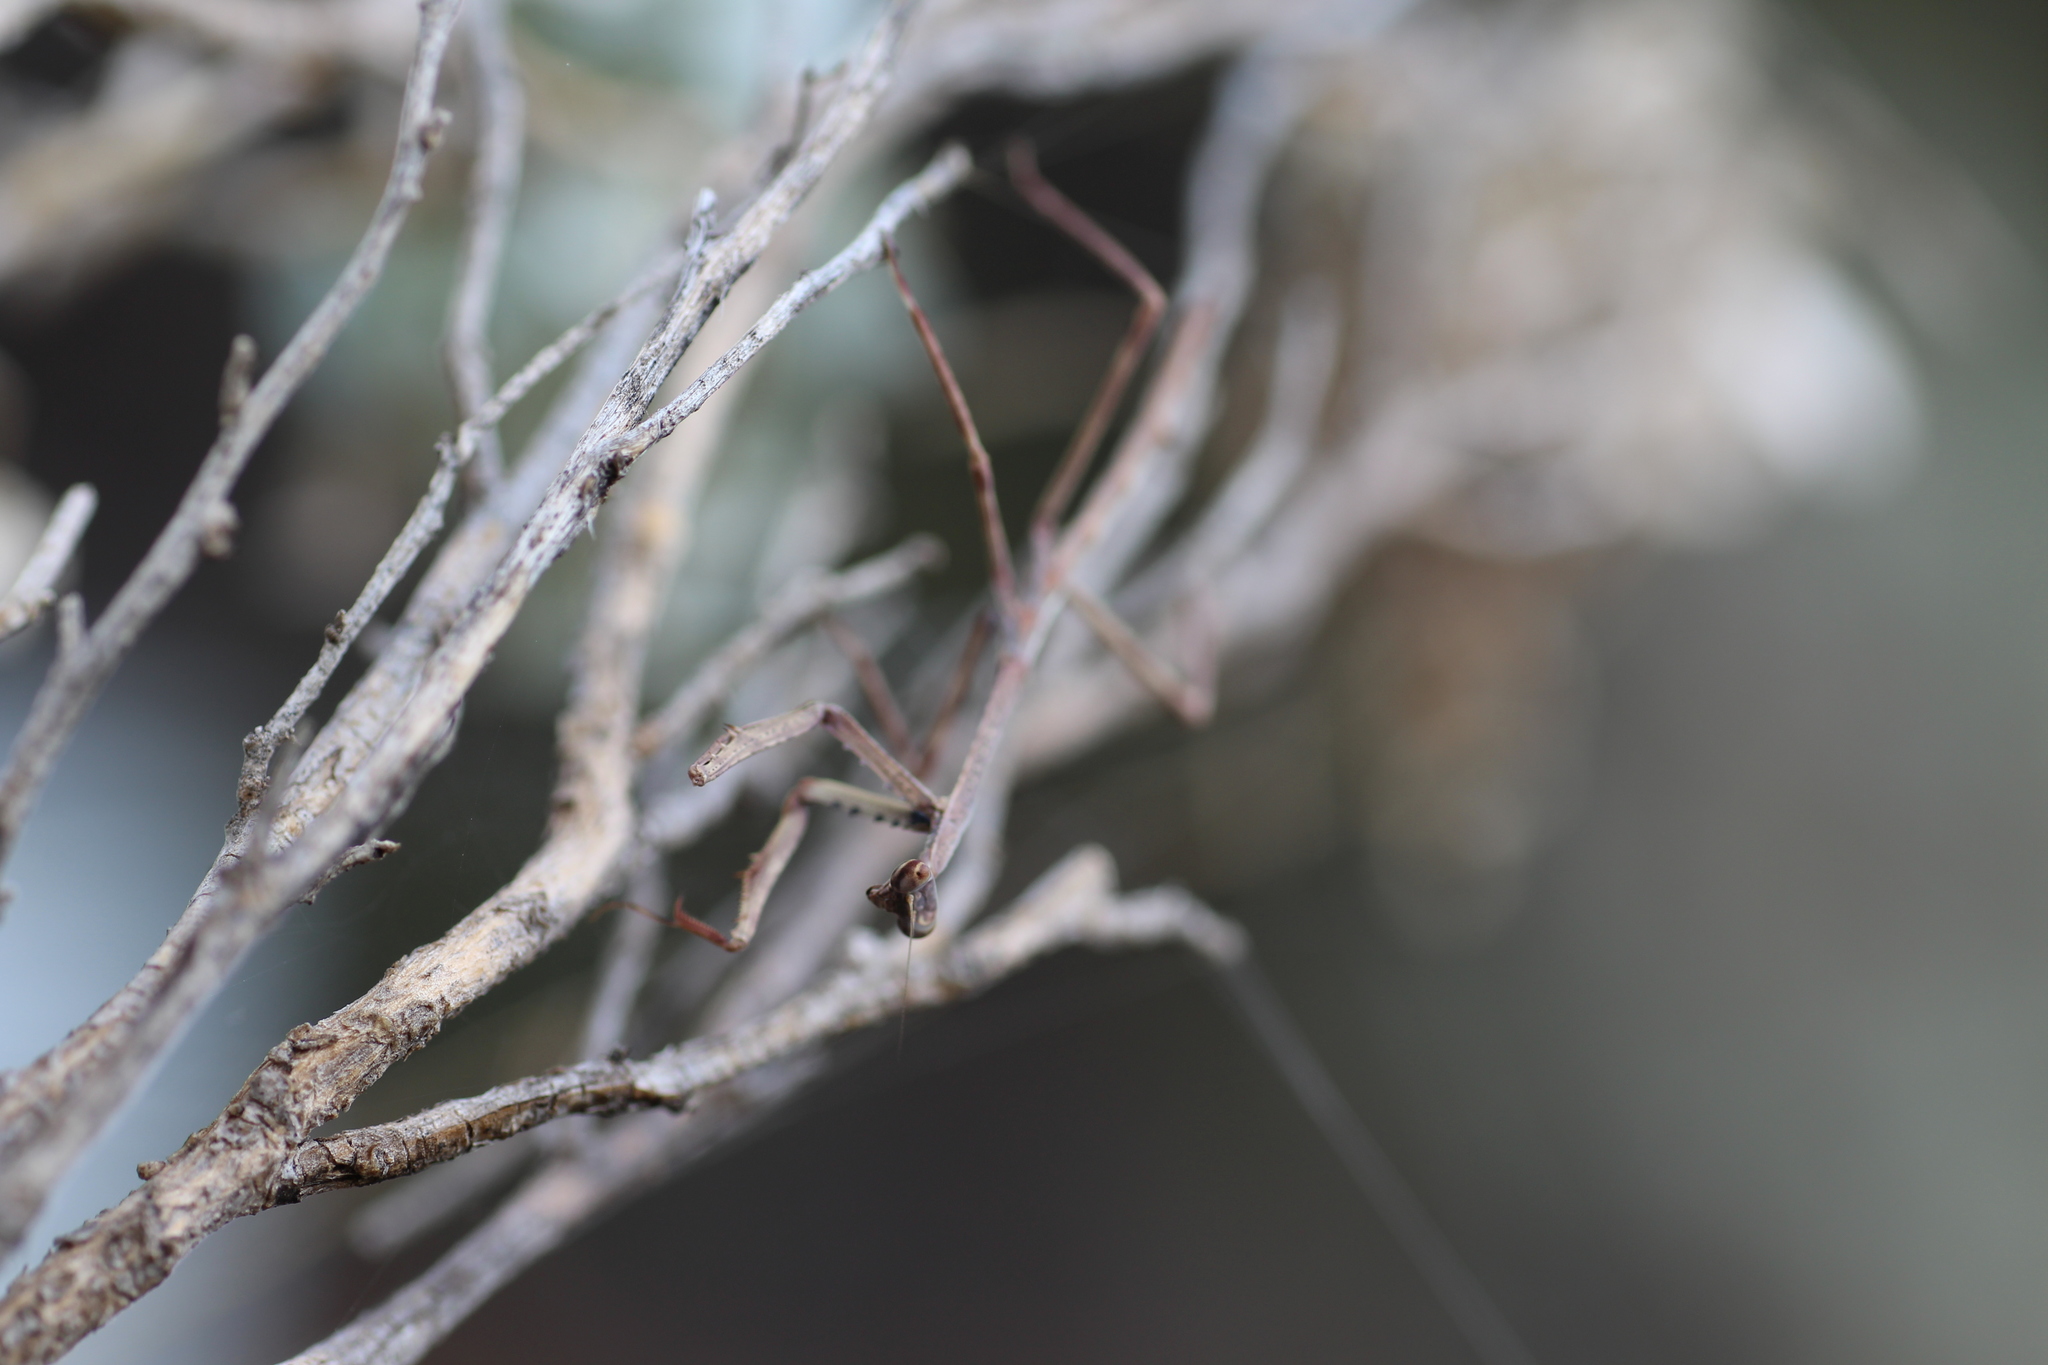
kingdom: Animalia
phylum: Arthropoda
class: Insecta
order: Mantodea
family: Mantidae
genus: Archimantis
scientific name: Archimantis quinquelobata
